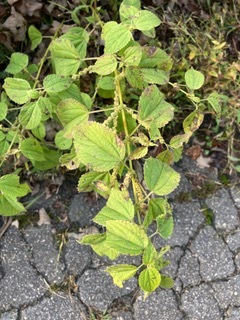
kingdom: Plantae
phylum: Tracheophyta
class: Magnoliopsida
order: Rosales
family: Urticaceae
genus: Boehmeria
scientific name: Boehmeria cylindrica
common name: Bog-hemp
